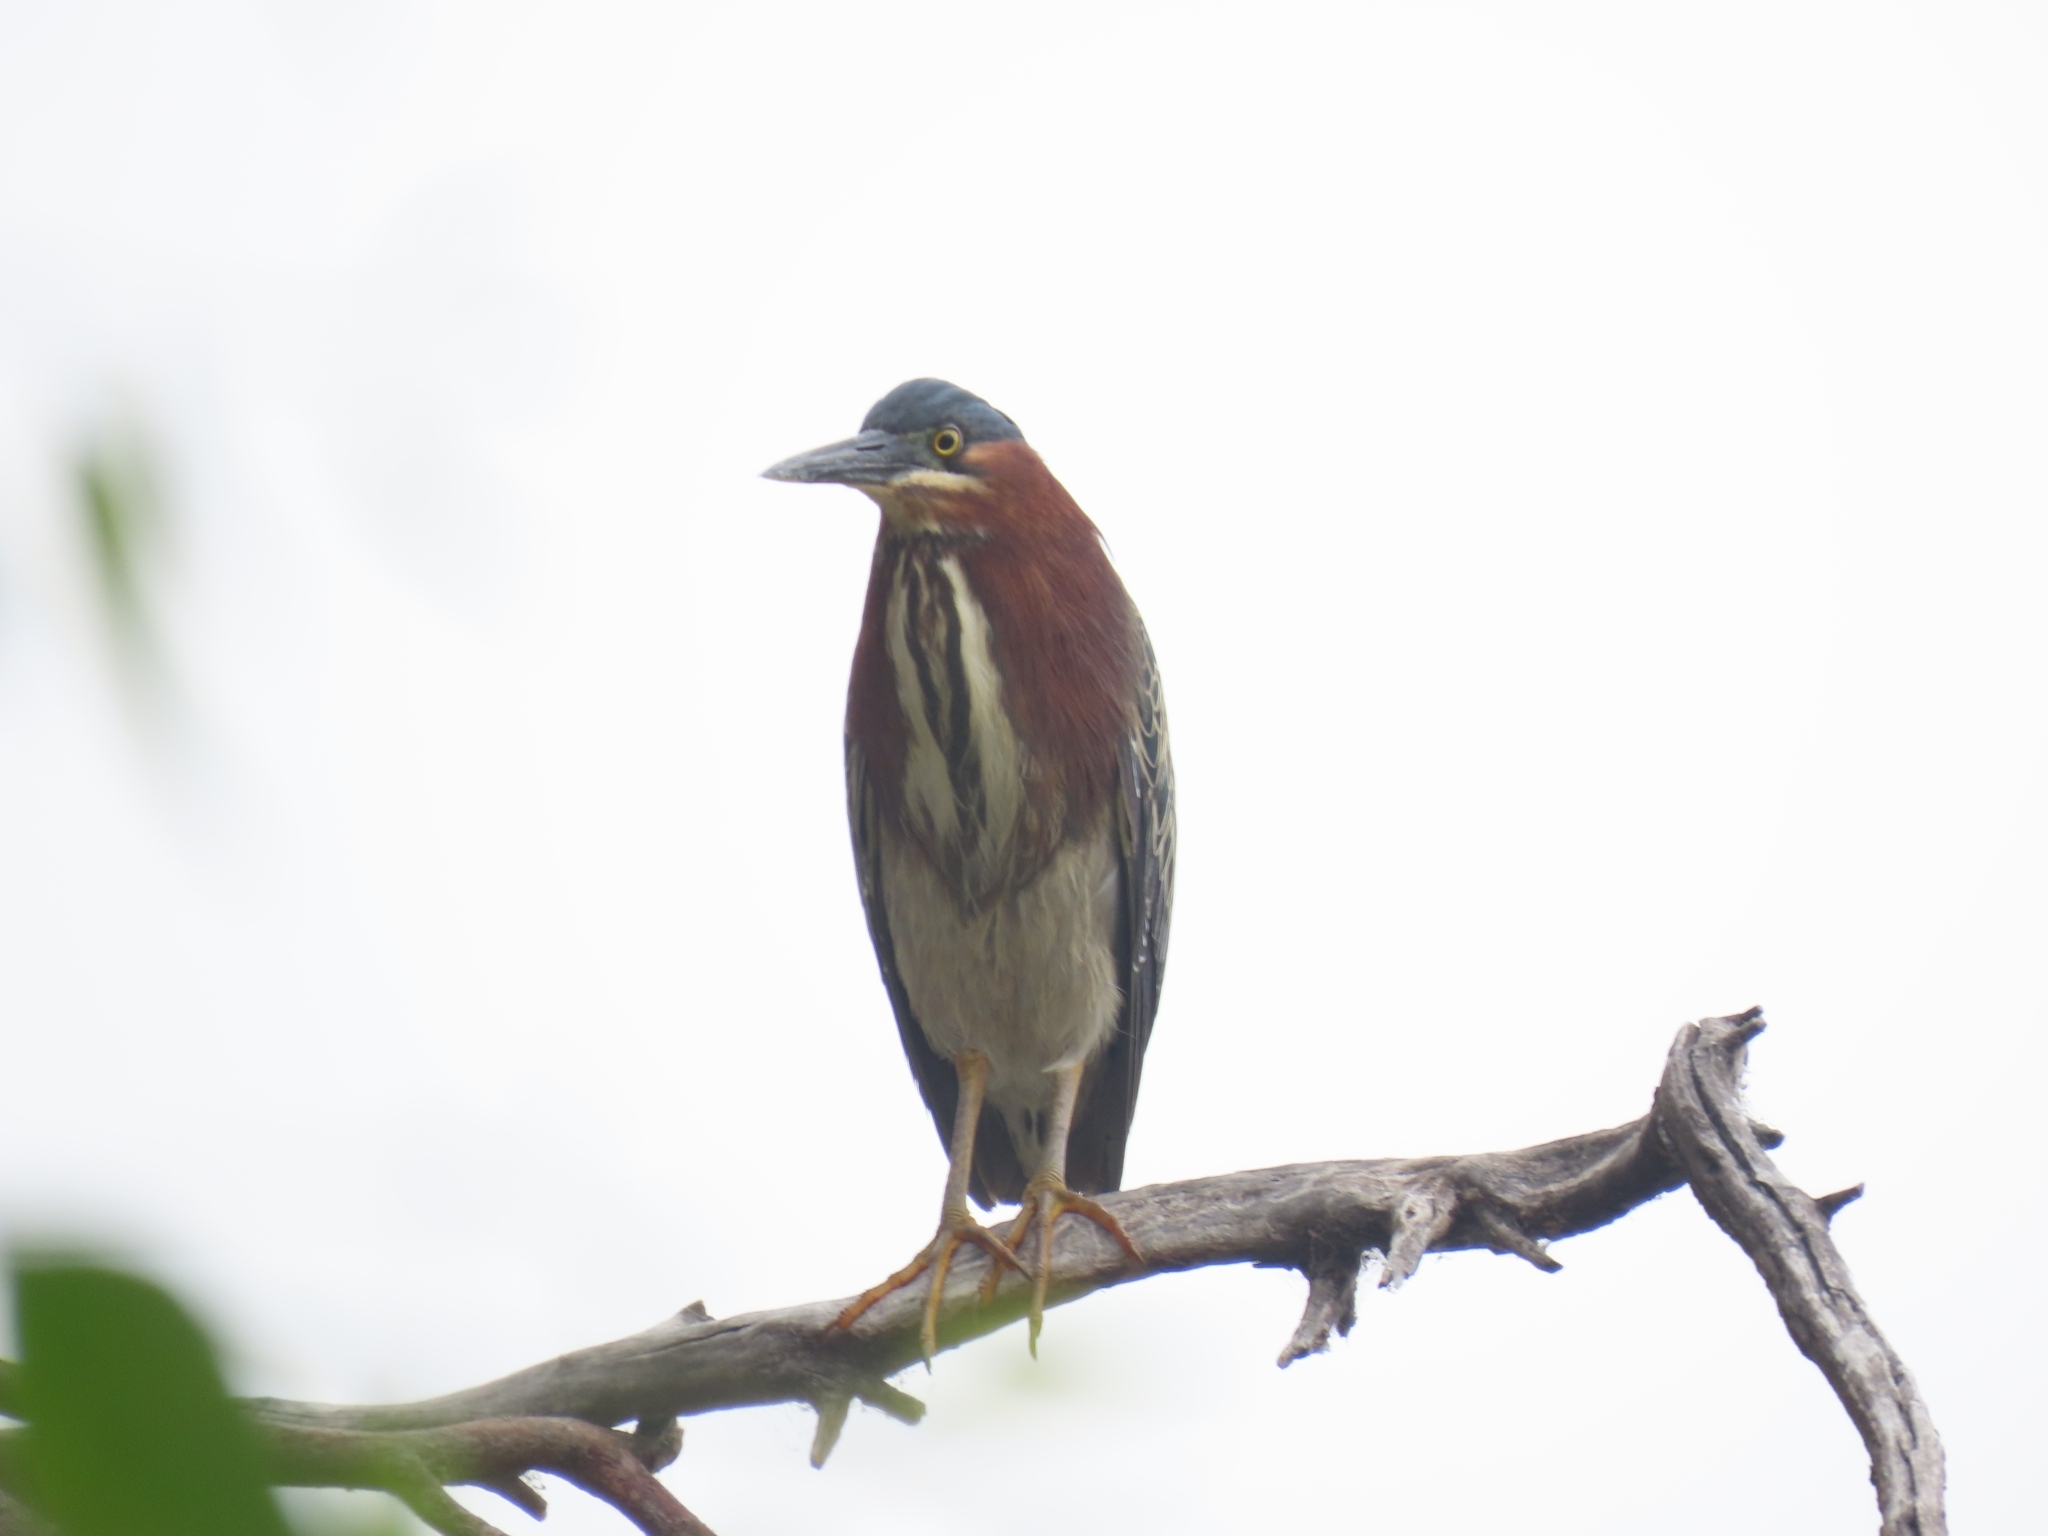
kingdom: Animalia
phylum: Chordata
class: Aves
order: Pelecaniformes
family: Ardeidae
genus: Butorides
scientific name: Butorides virescens
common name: Green heron
